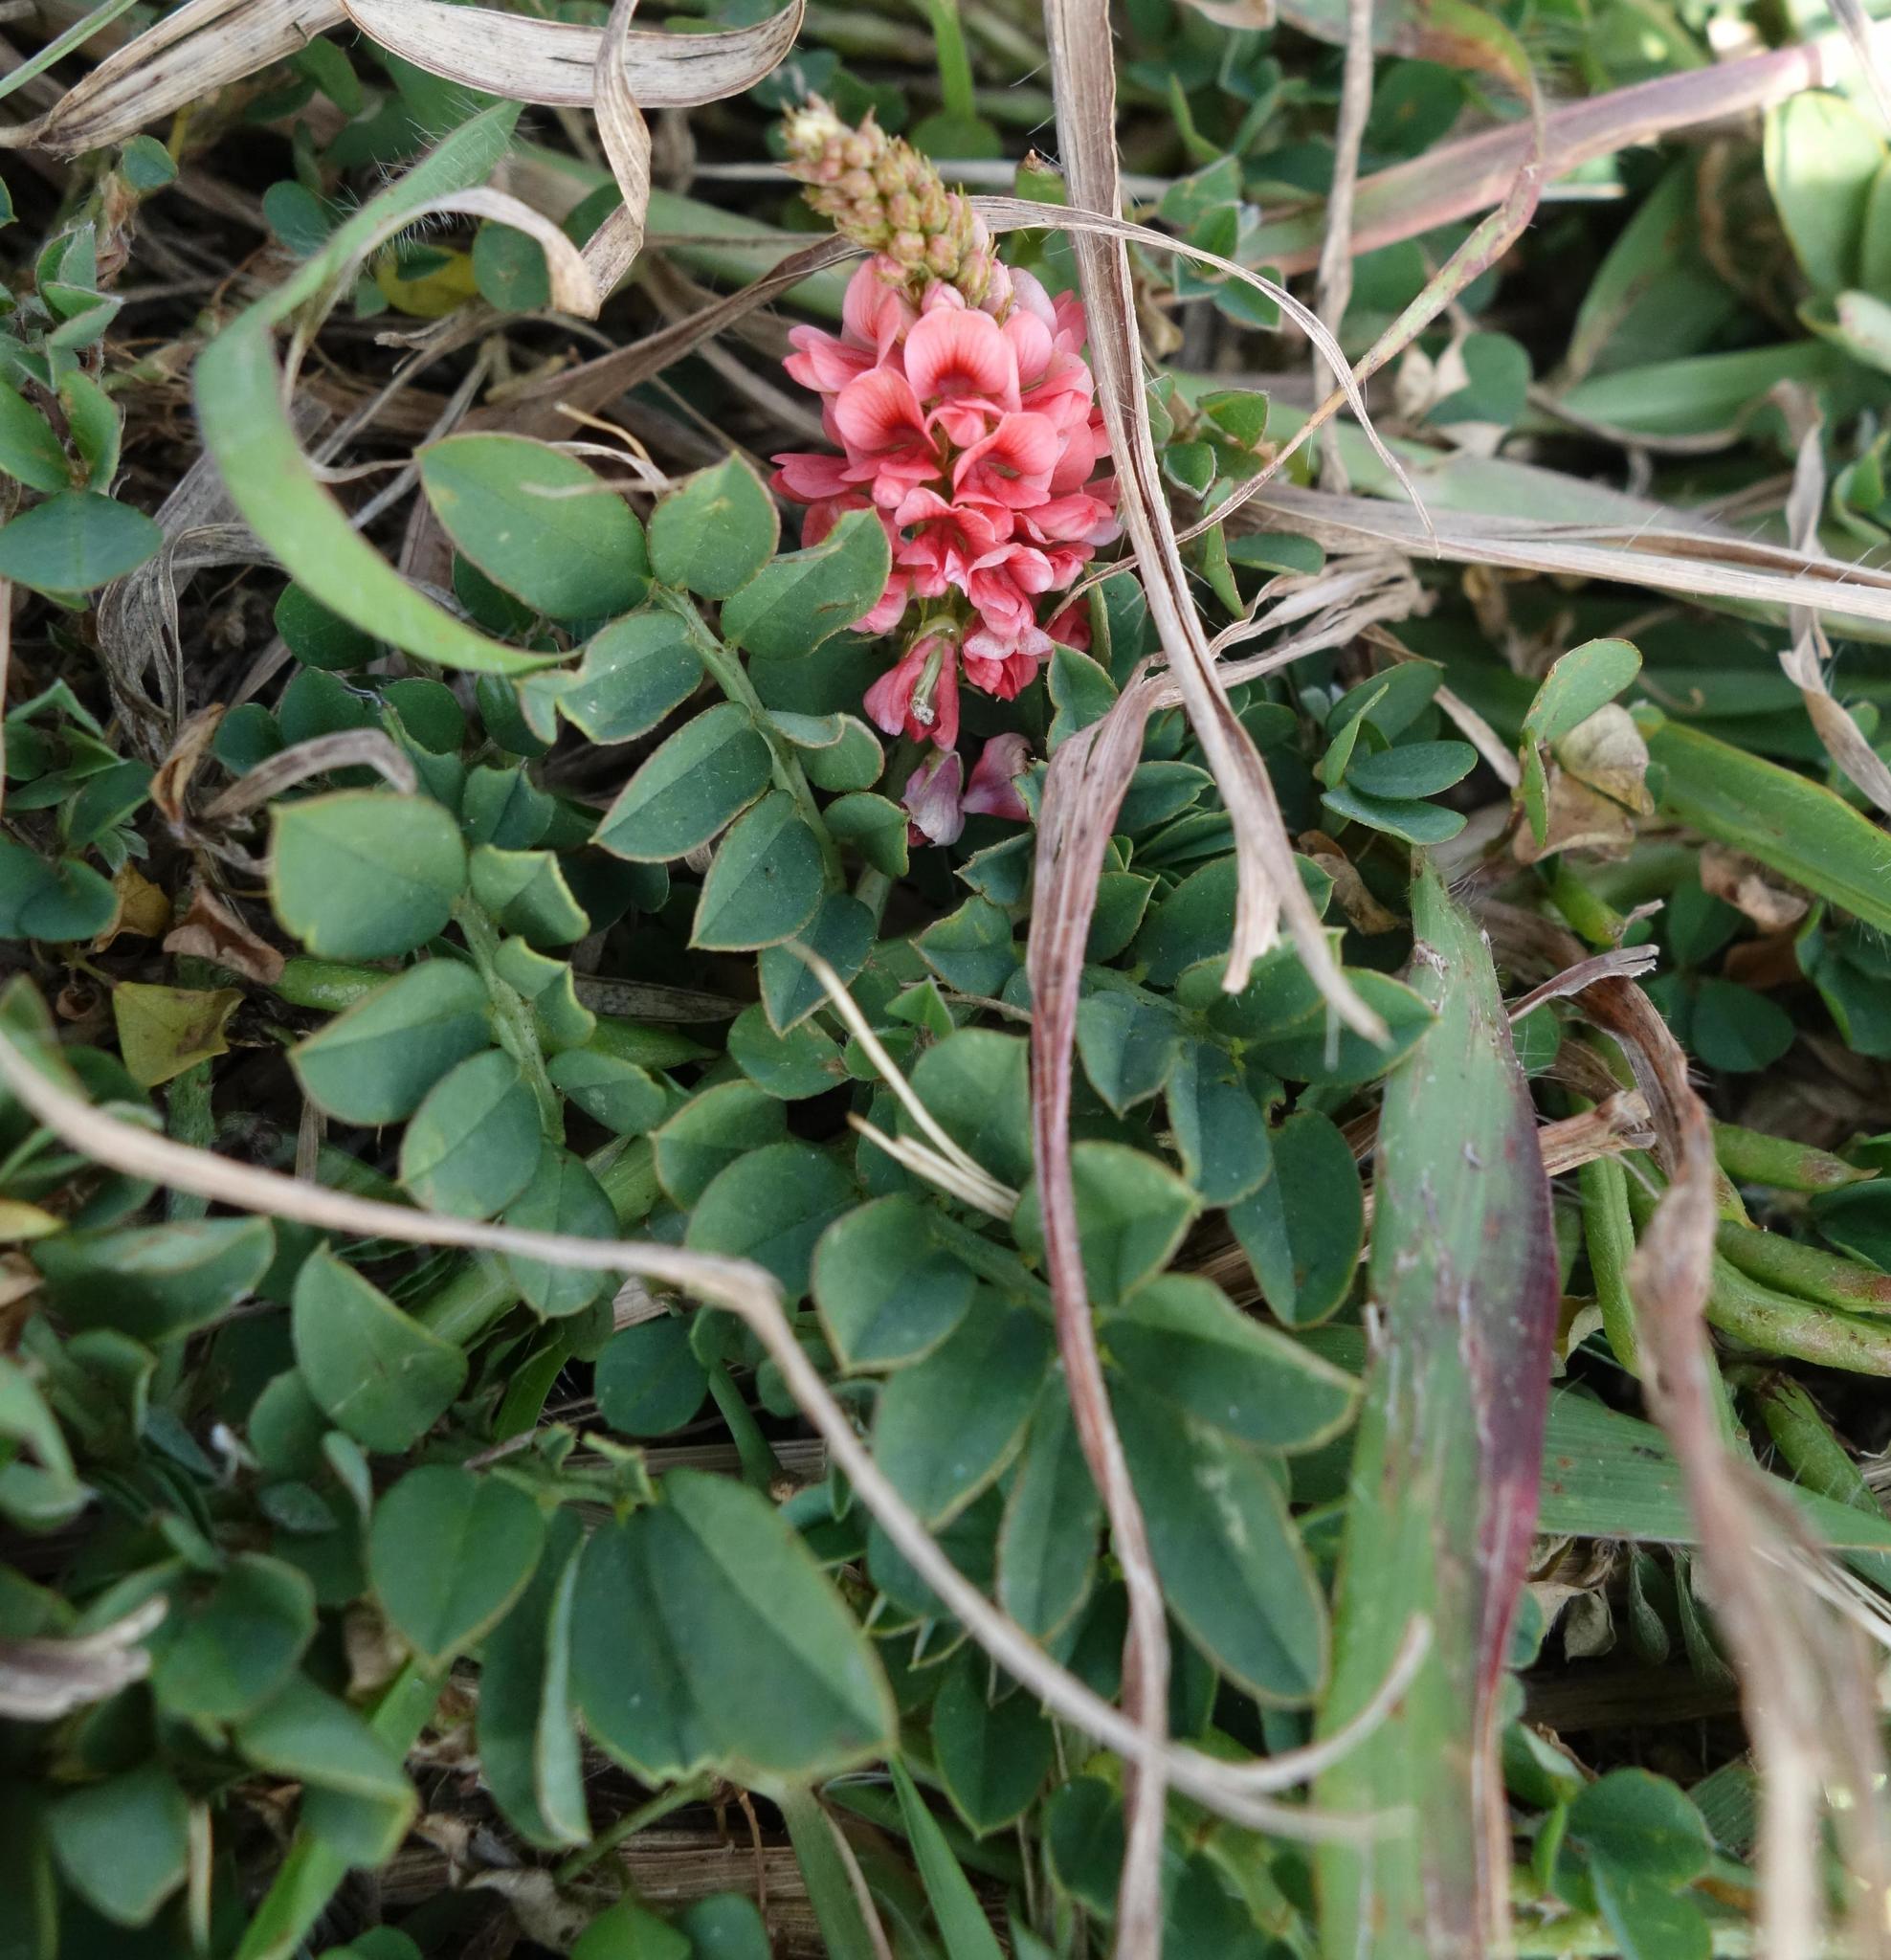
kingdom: Plantae
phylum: Tracheophyta
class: Magnoliopsida
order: Fabales
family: Fabaceae
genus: Indigofera
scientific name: Indigofera spicata
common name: Creeping indigo
